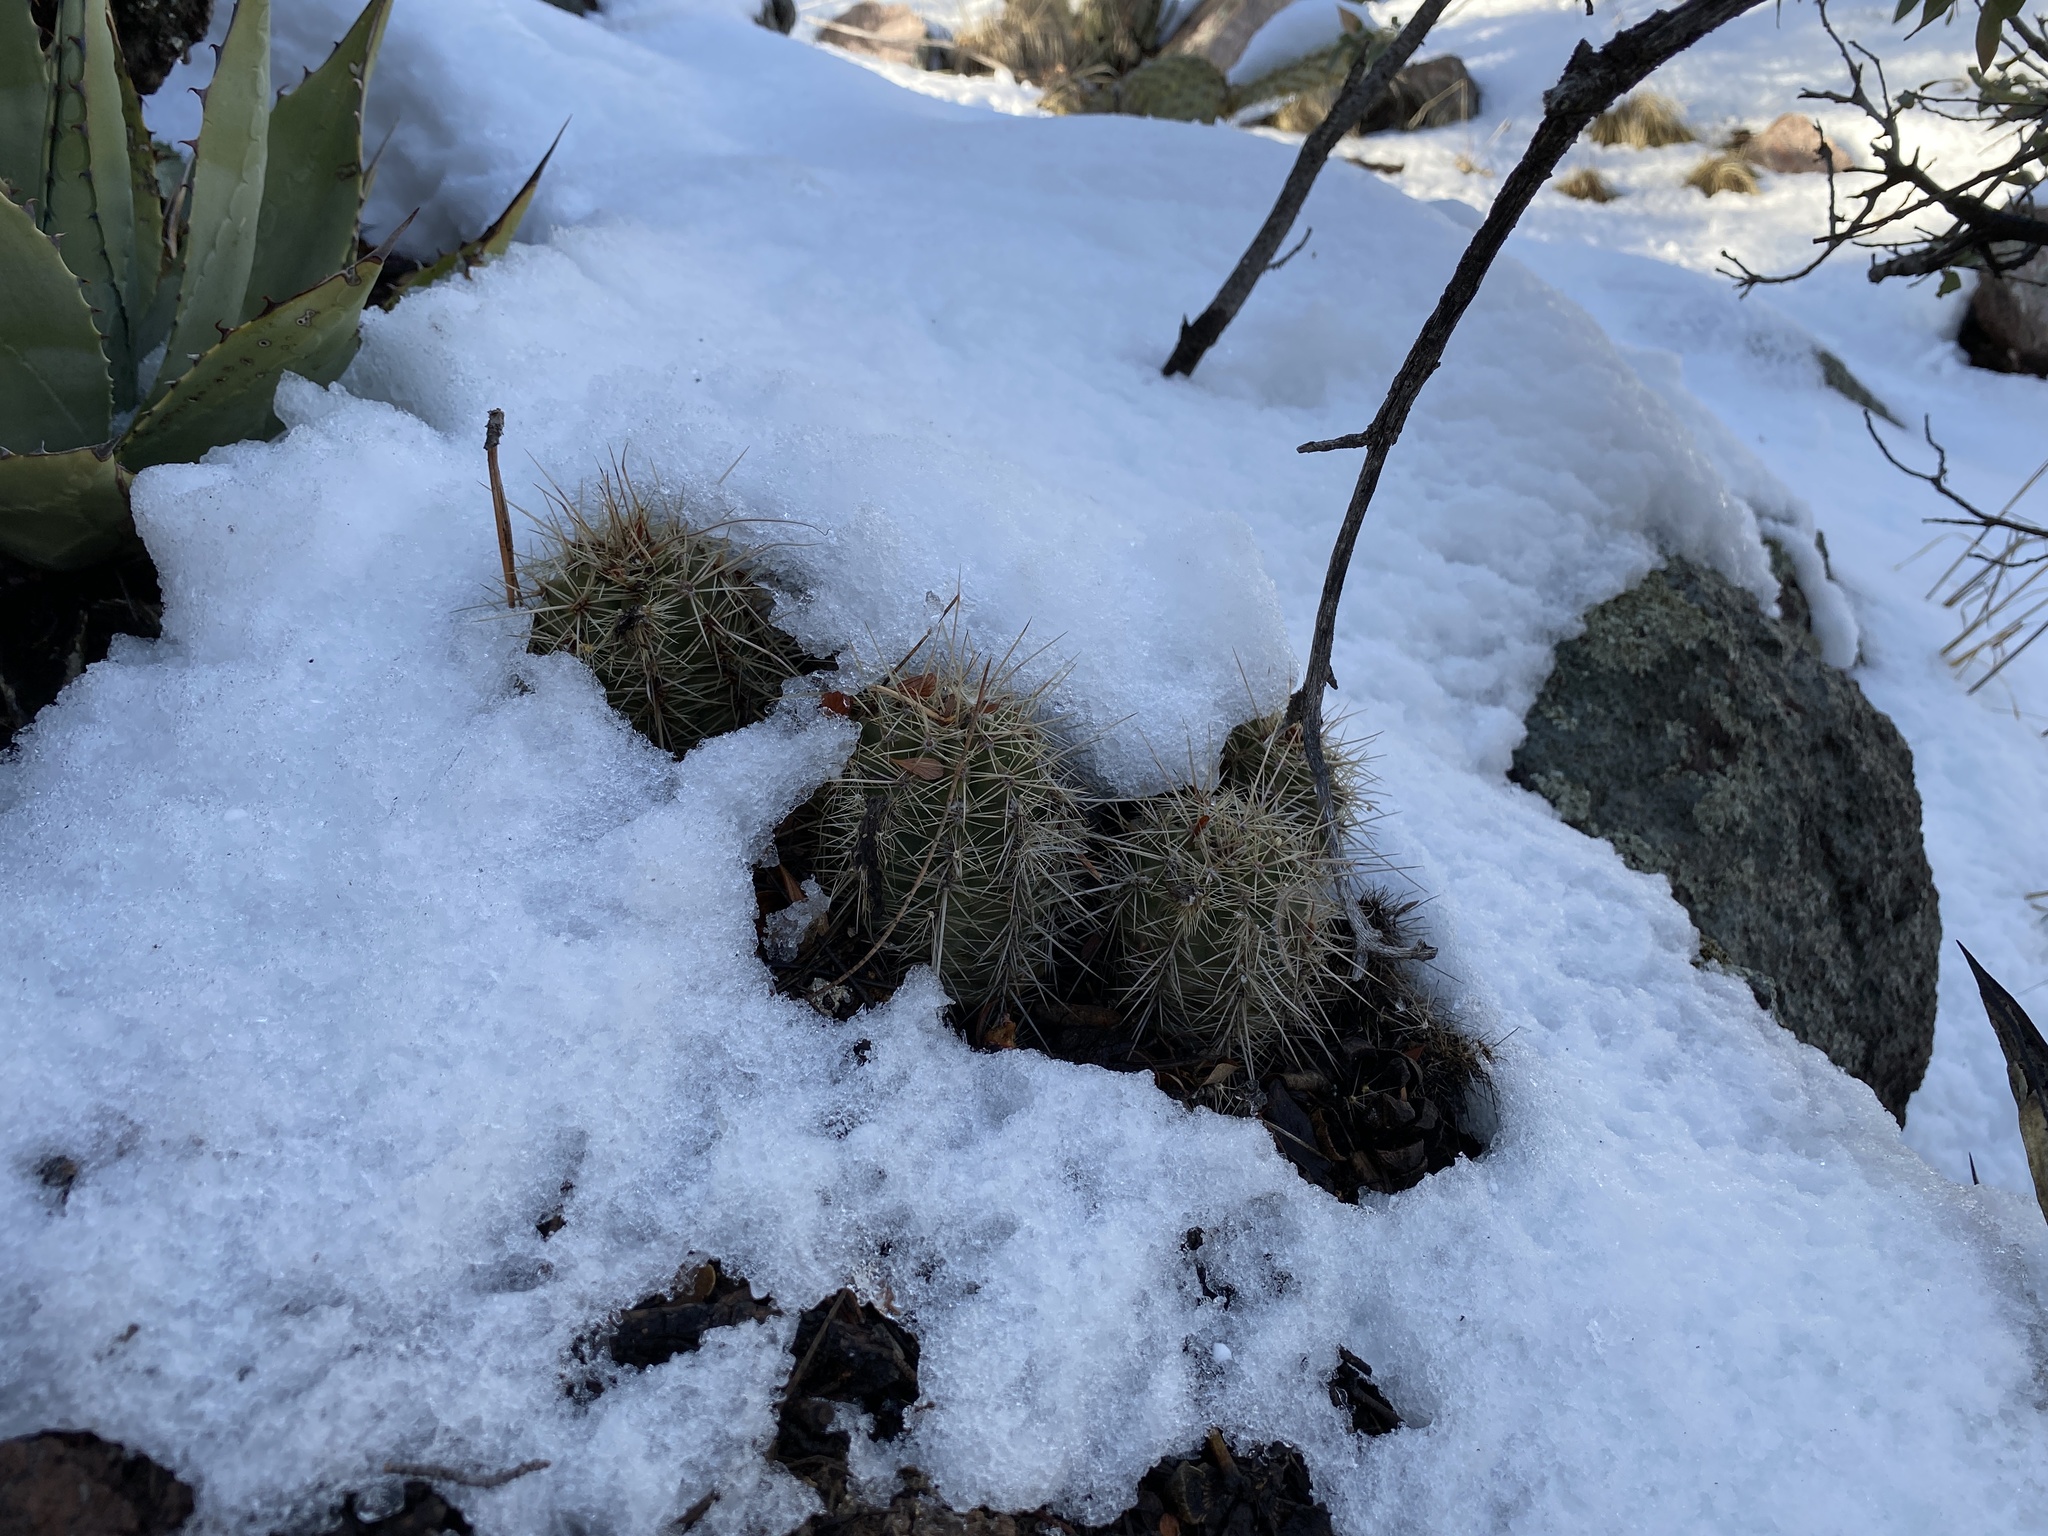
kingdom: Plantae
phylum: Tracheophyta
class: Magnoliopsida
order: Caryophyllales
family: Cactaceae
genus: Echinocereus
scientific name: Echinocereus coccineus
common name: Scarlet hedgehog cactus
